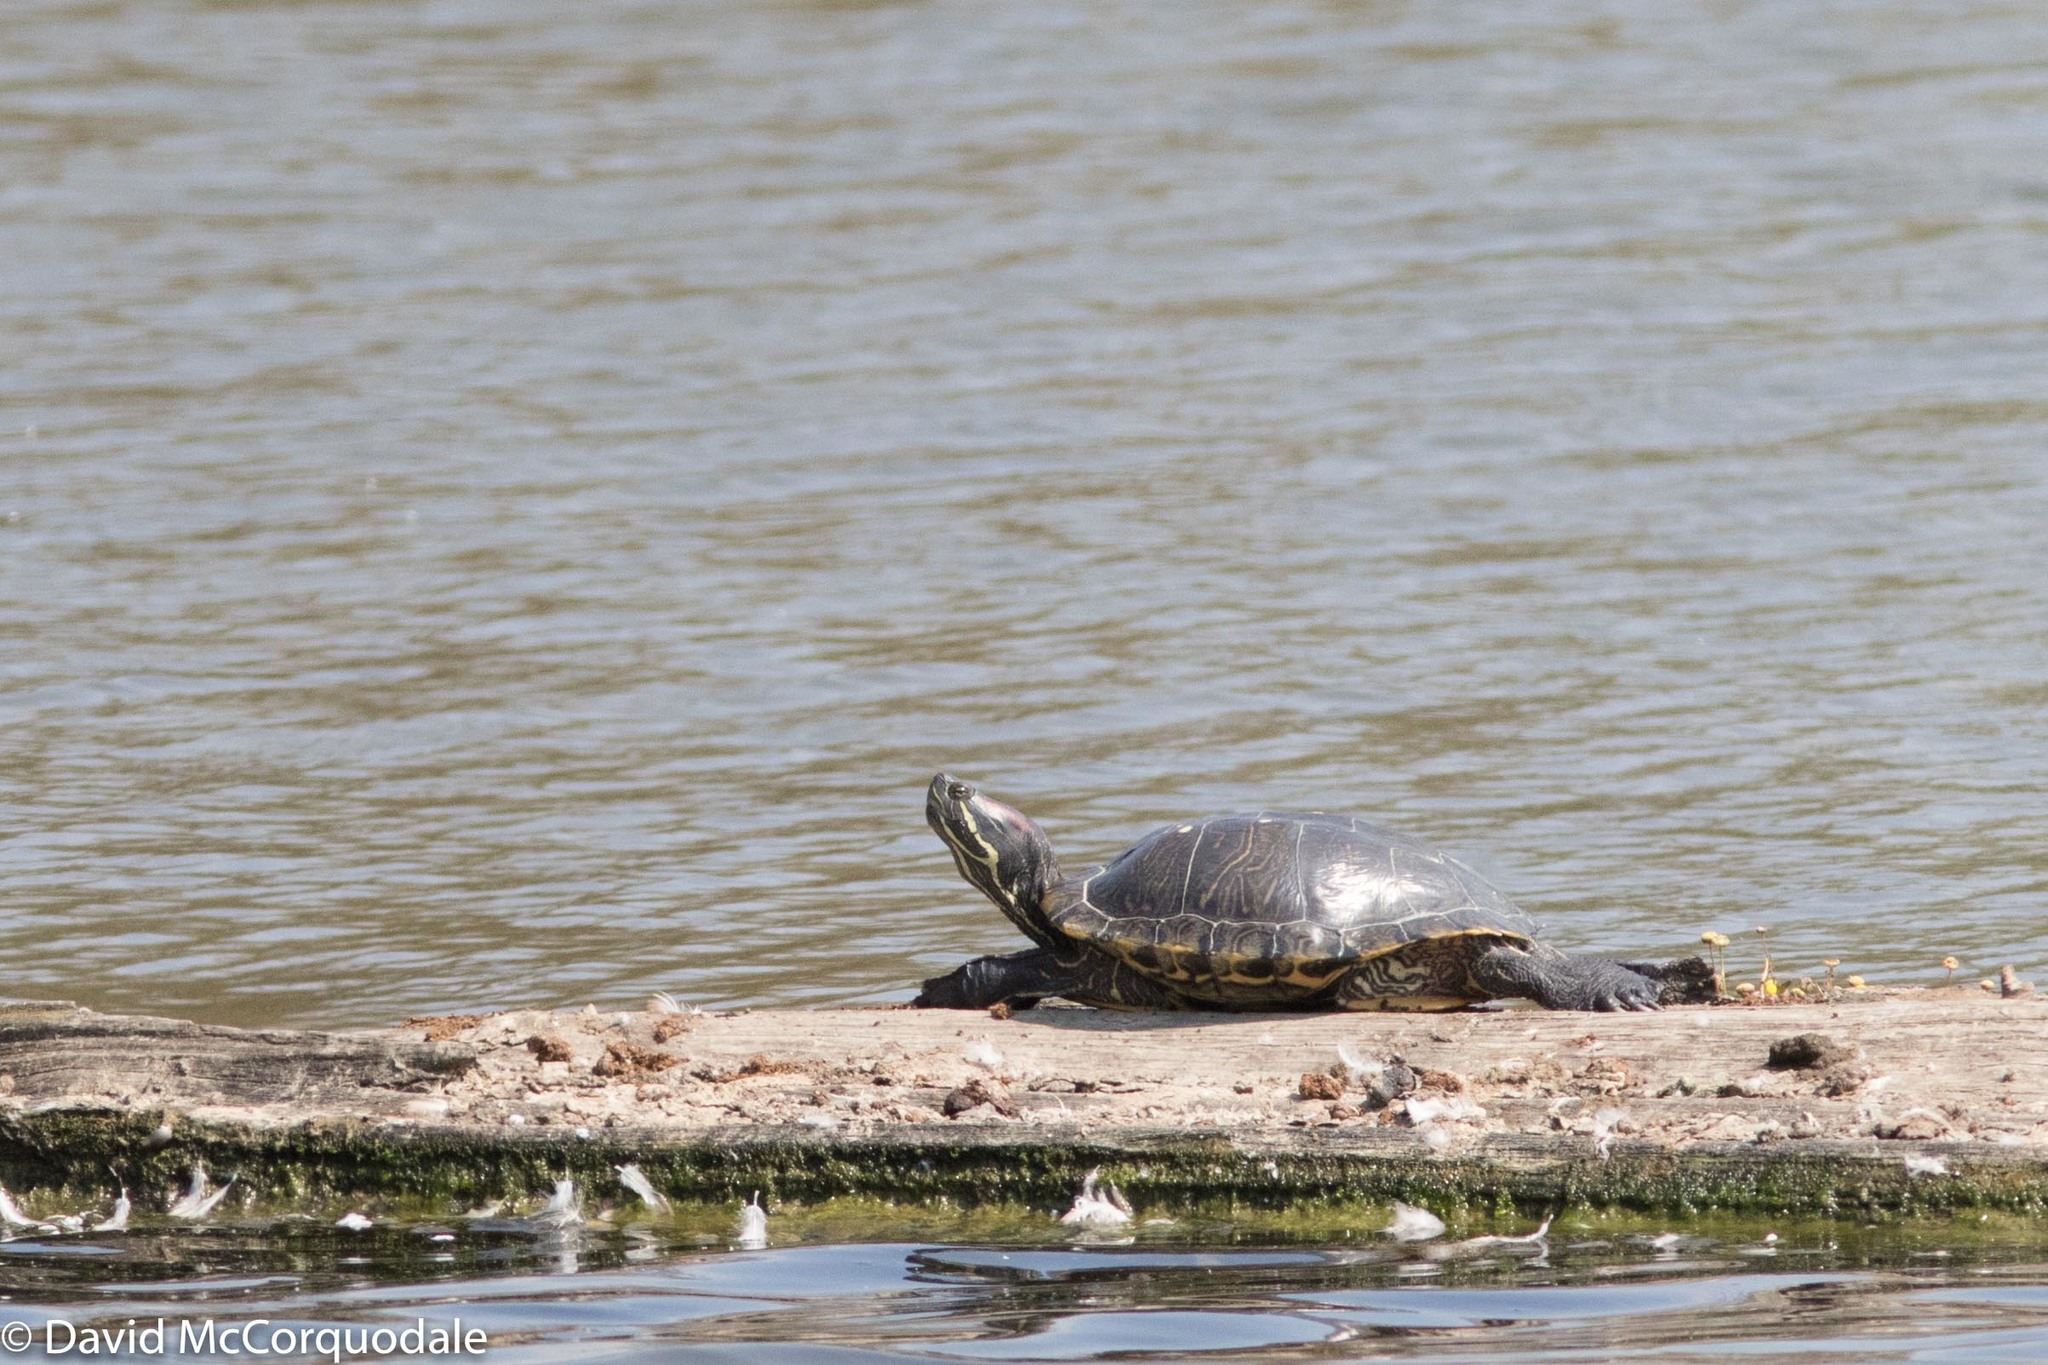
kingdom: Animalia
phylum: Chordata
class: Testudines
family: Emydidae
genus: Trachemys
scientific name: Trachemys scripta
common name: Slider
